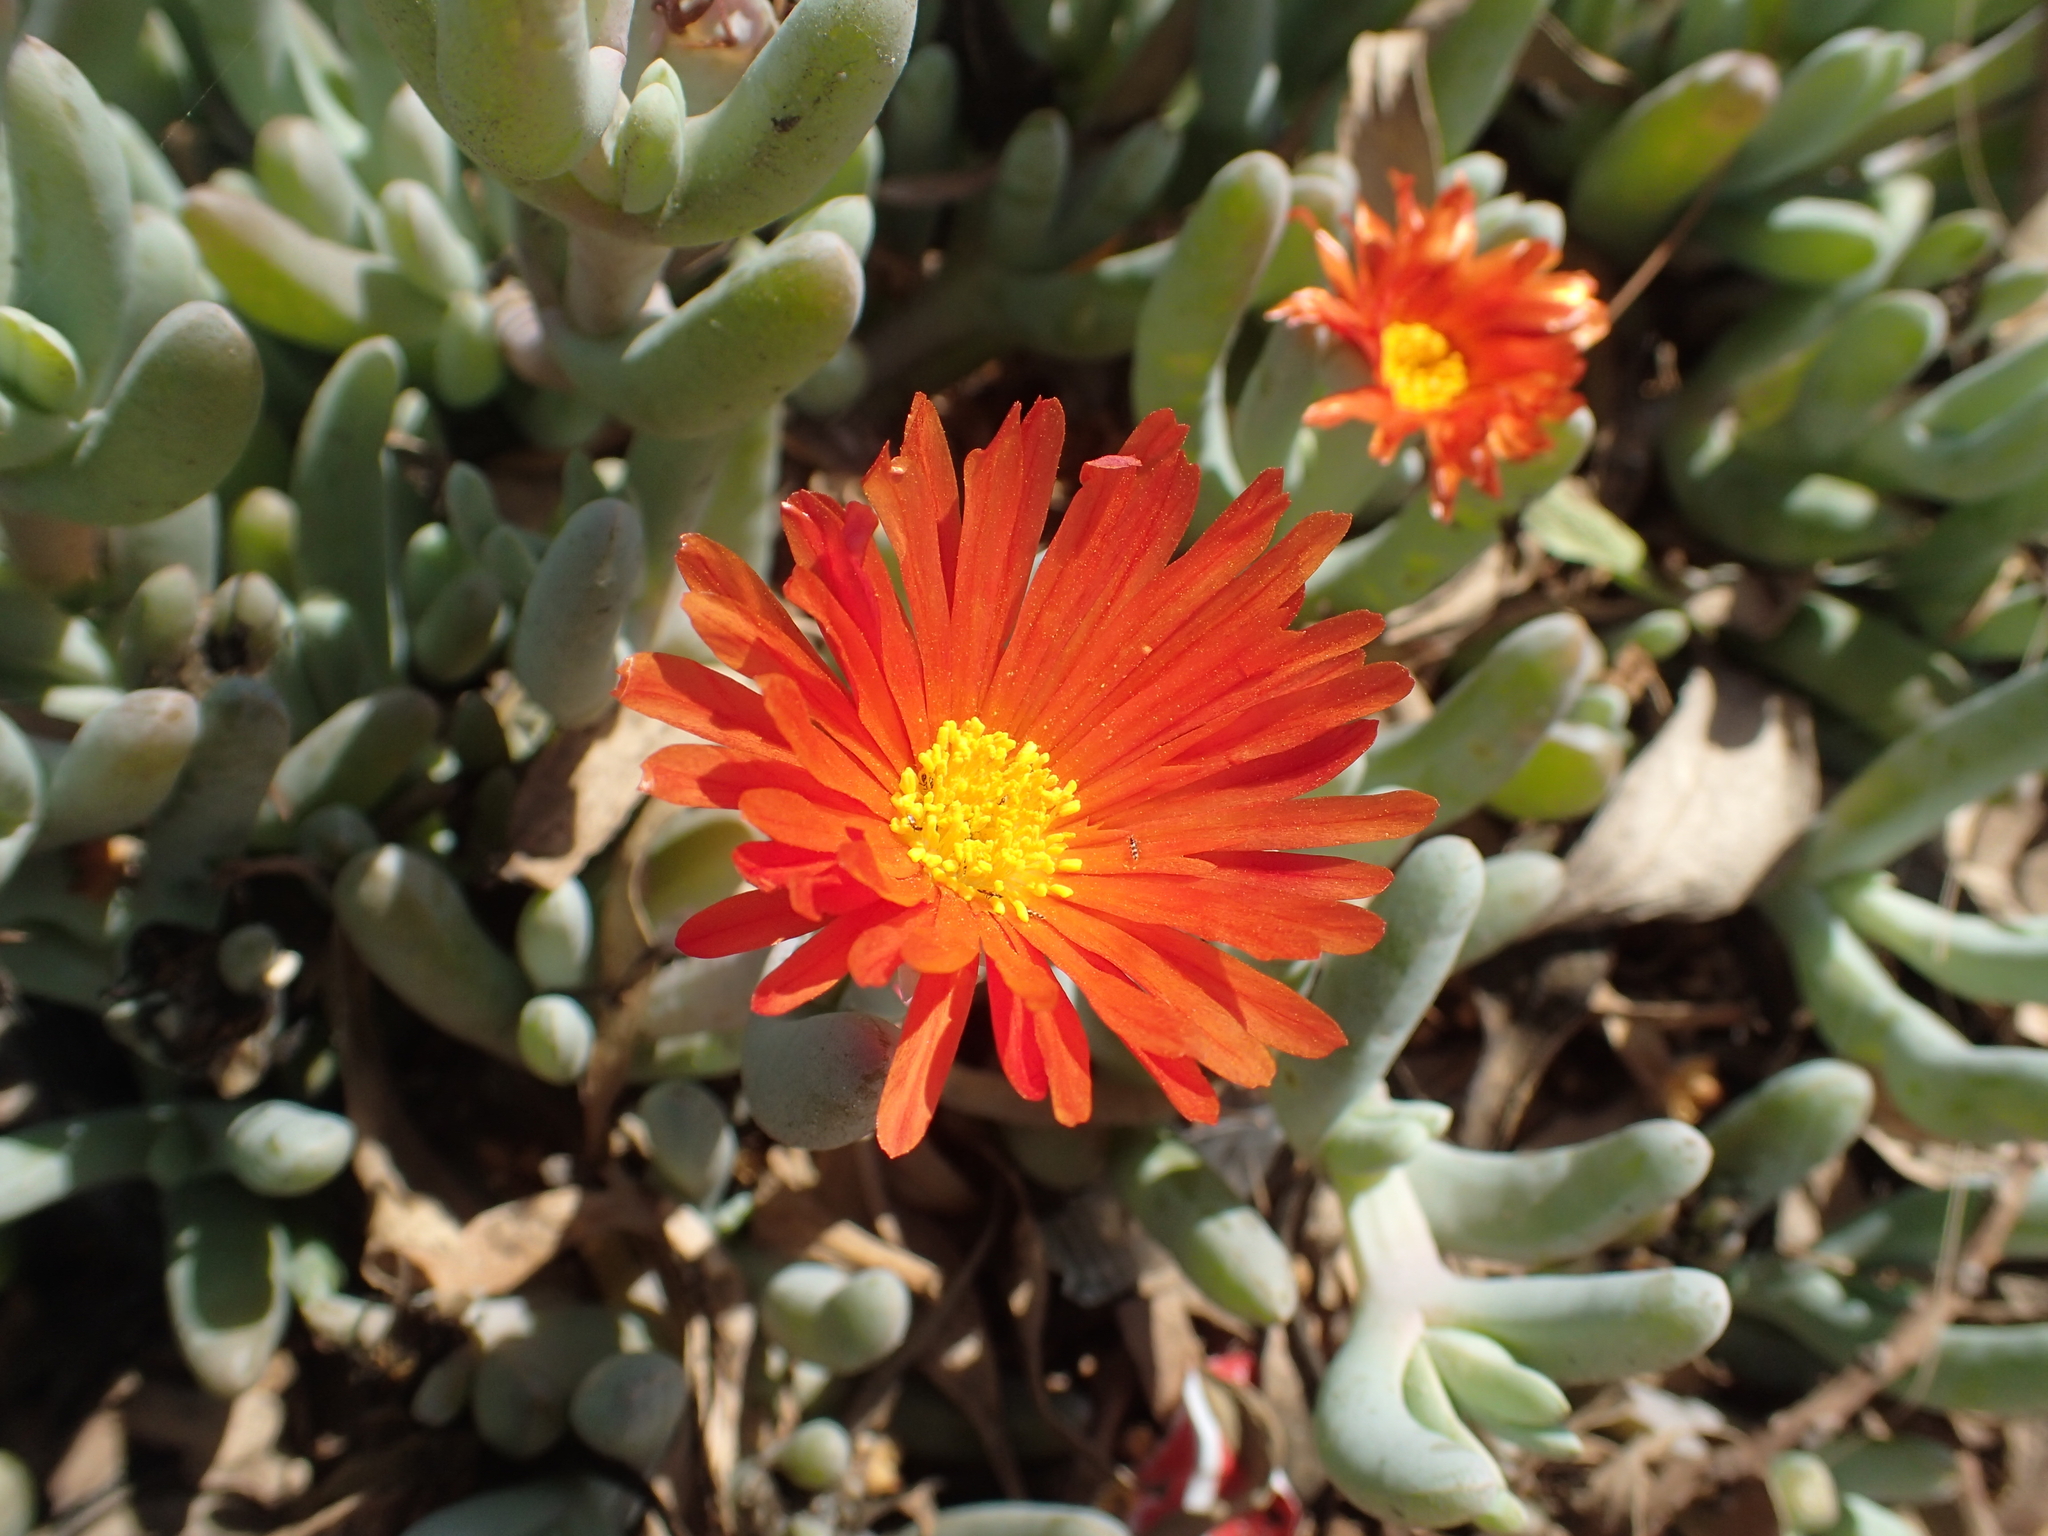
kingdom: Plantae
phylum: Tracheophyta
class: Magnoliopsida
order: Caryophyllales
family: Aizoaceae
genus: Malephora
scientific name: Malephora purpureocrocea
